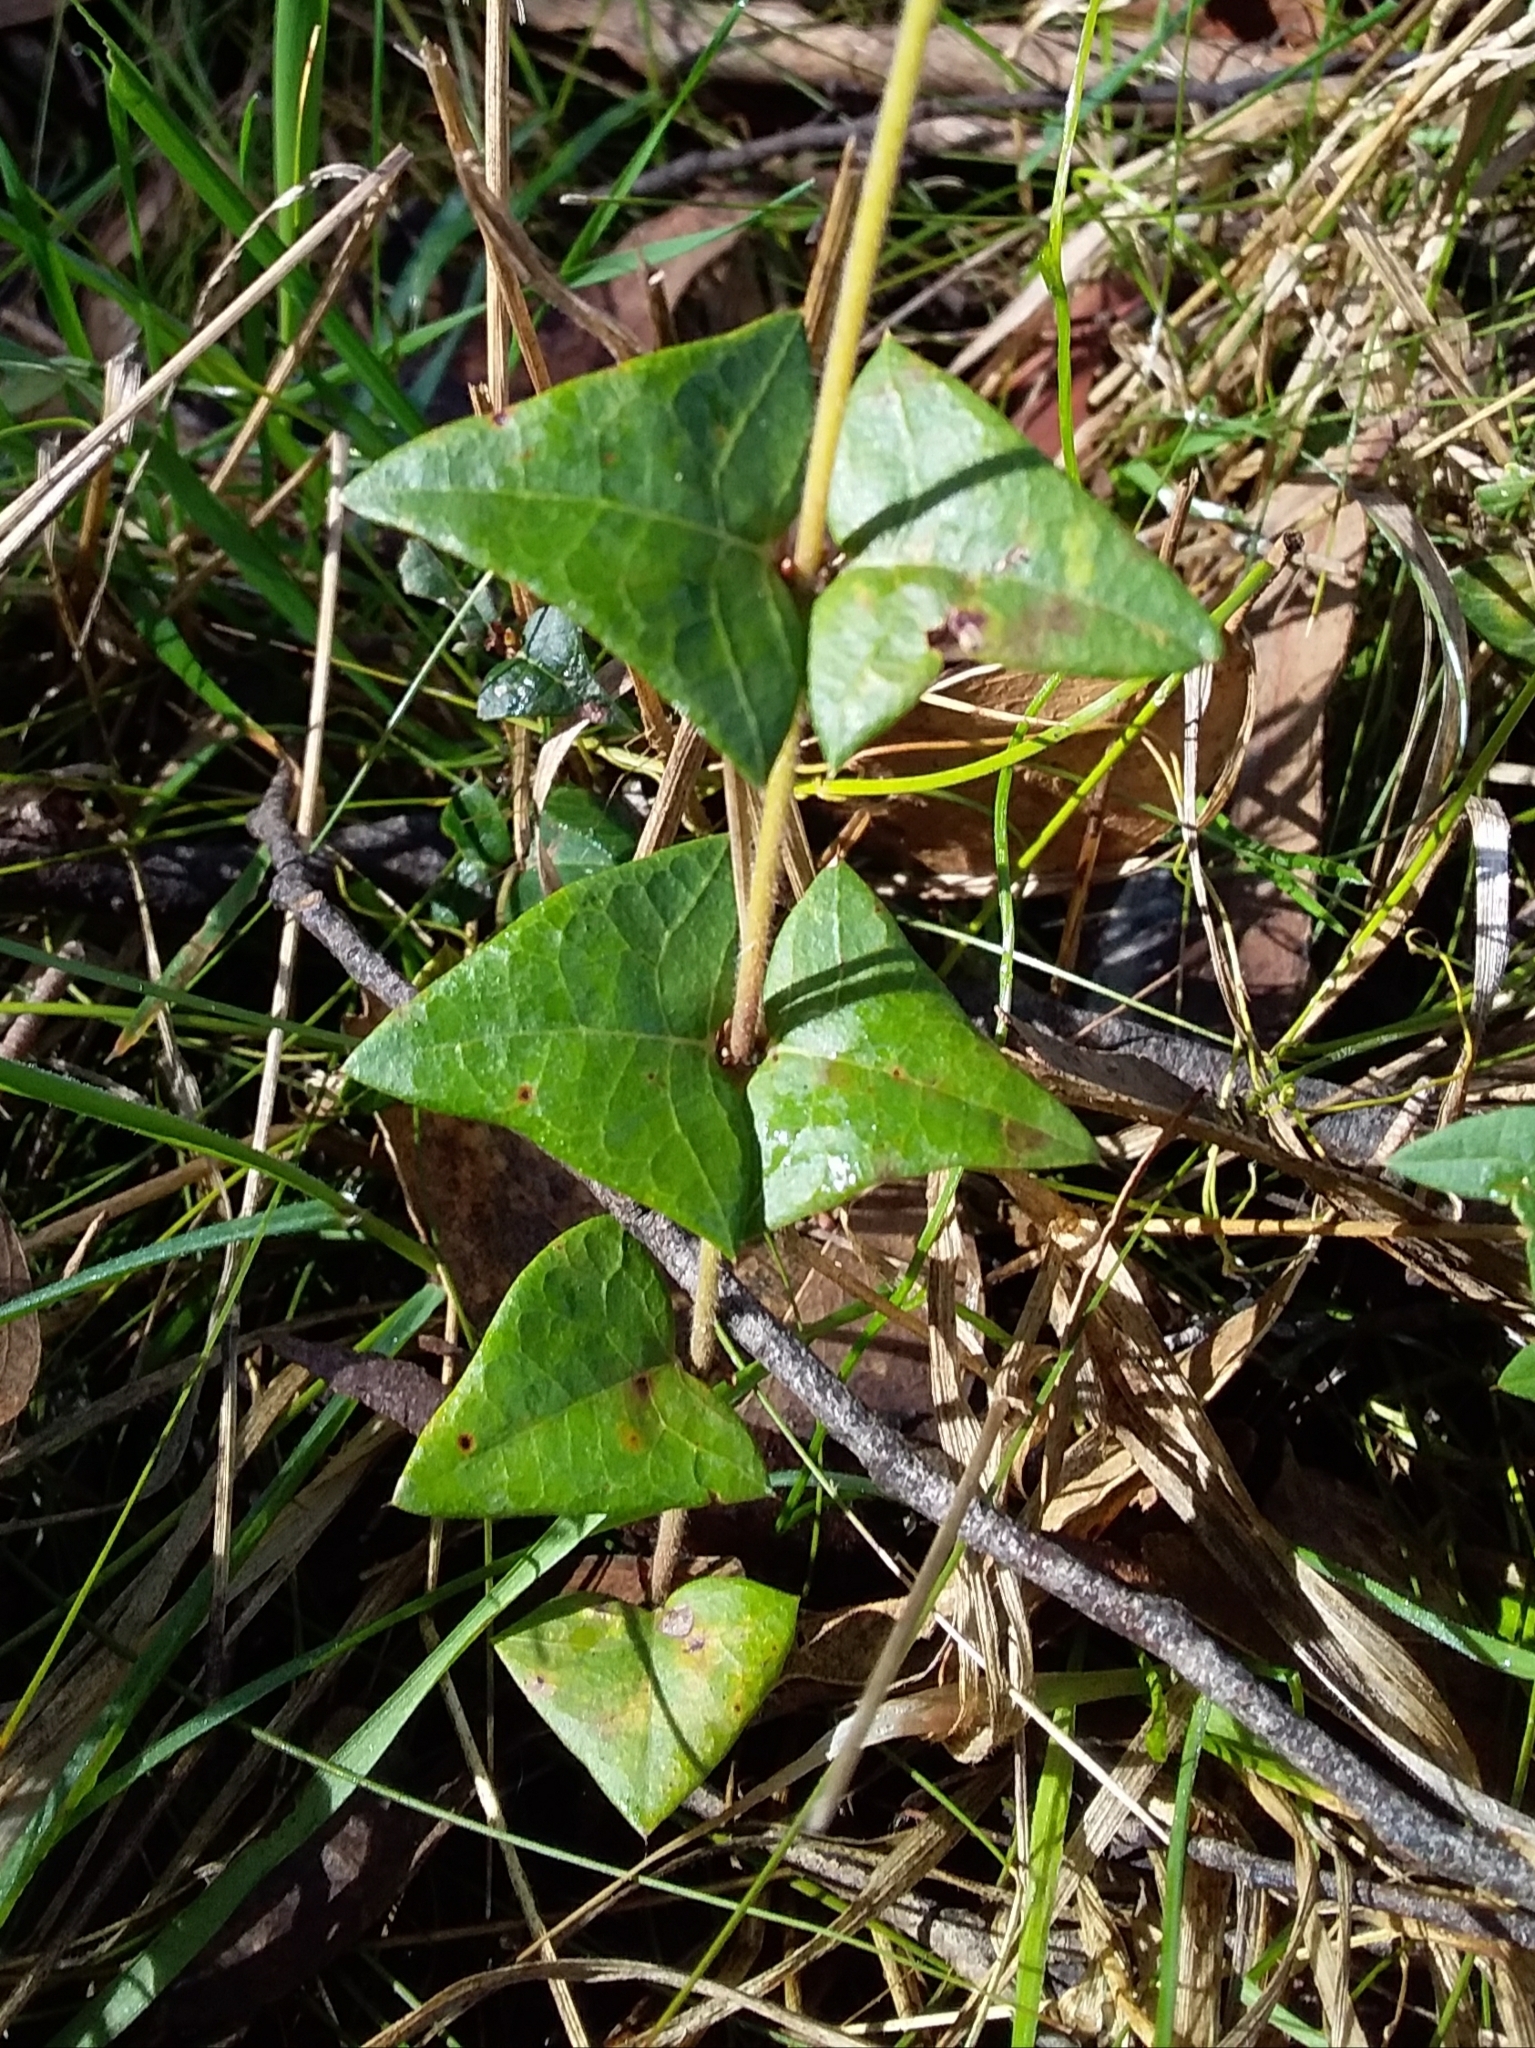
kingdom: Plantae
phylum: Tracheophyta
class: Magnoliopsida
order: Fabales
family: Fabaceae
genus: Platylobium
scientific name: Platylobium obtusangulum
